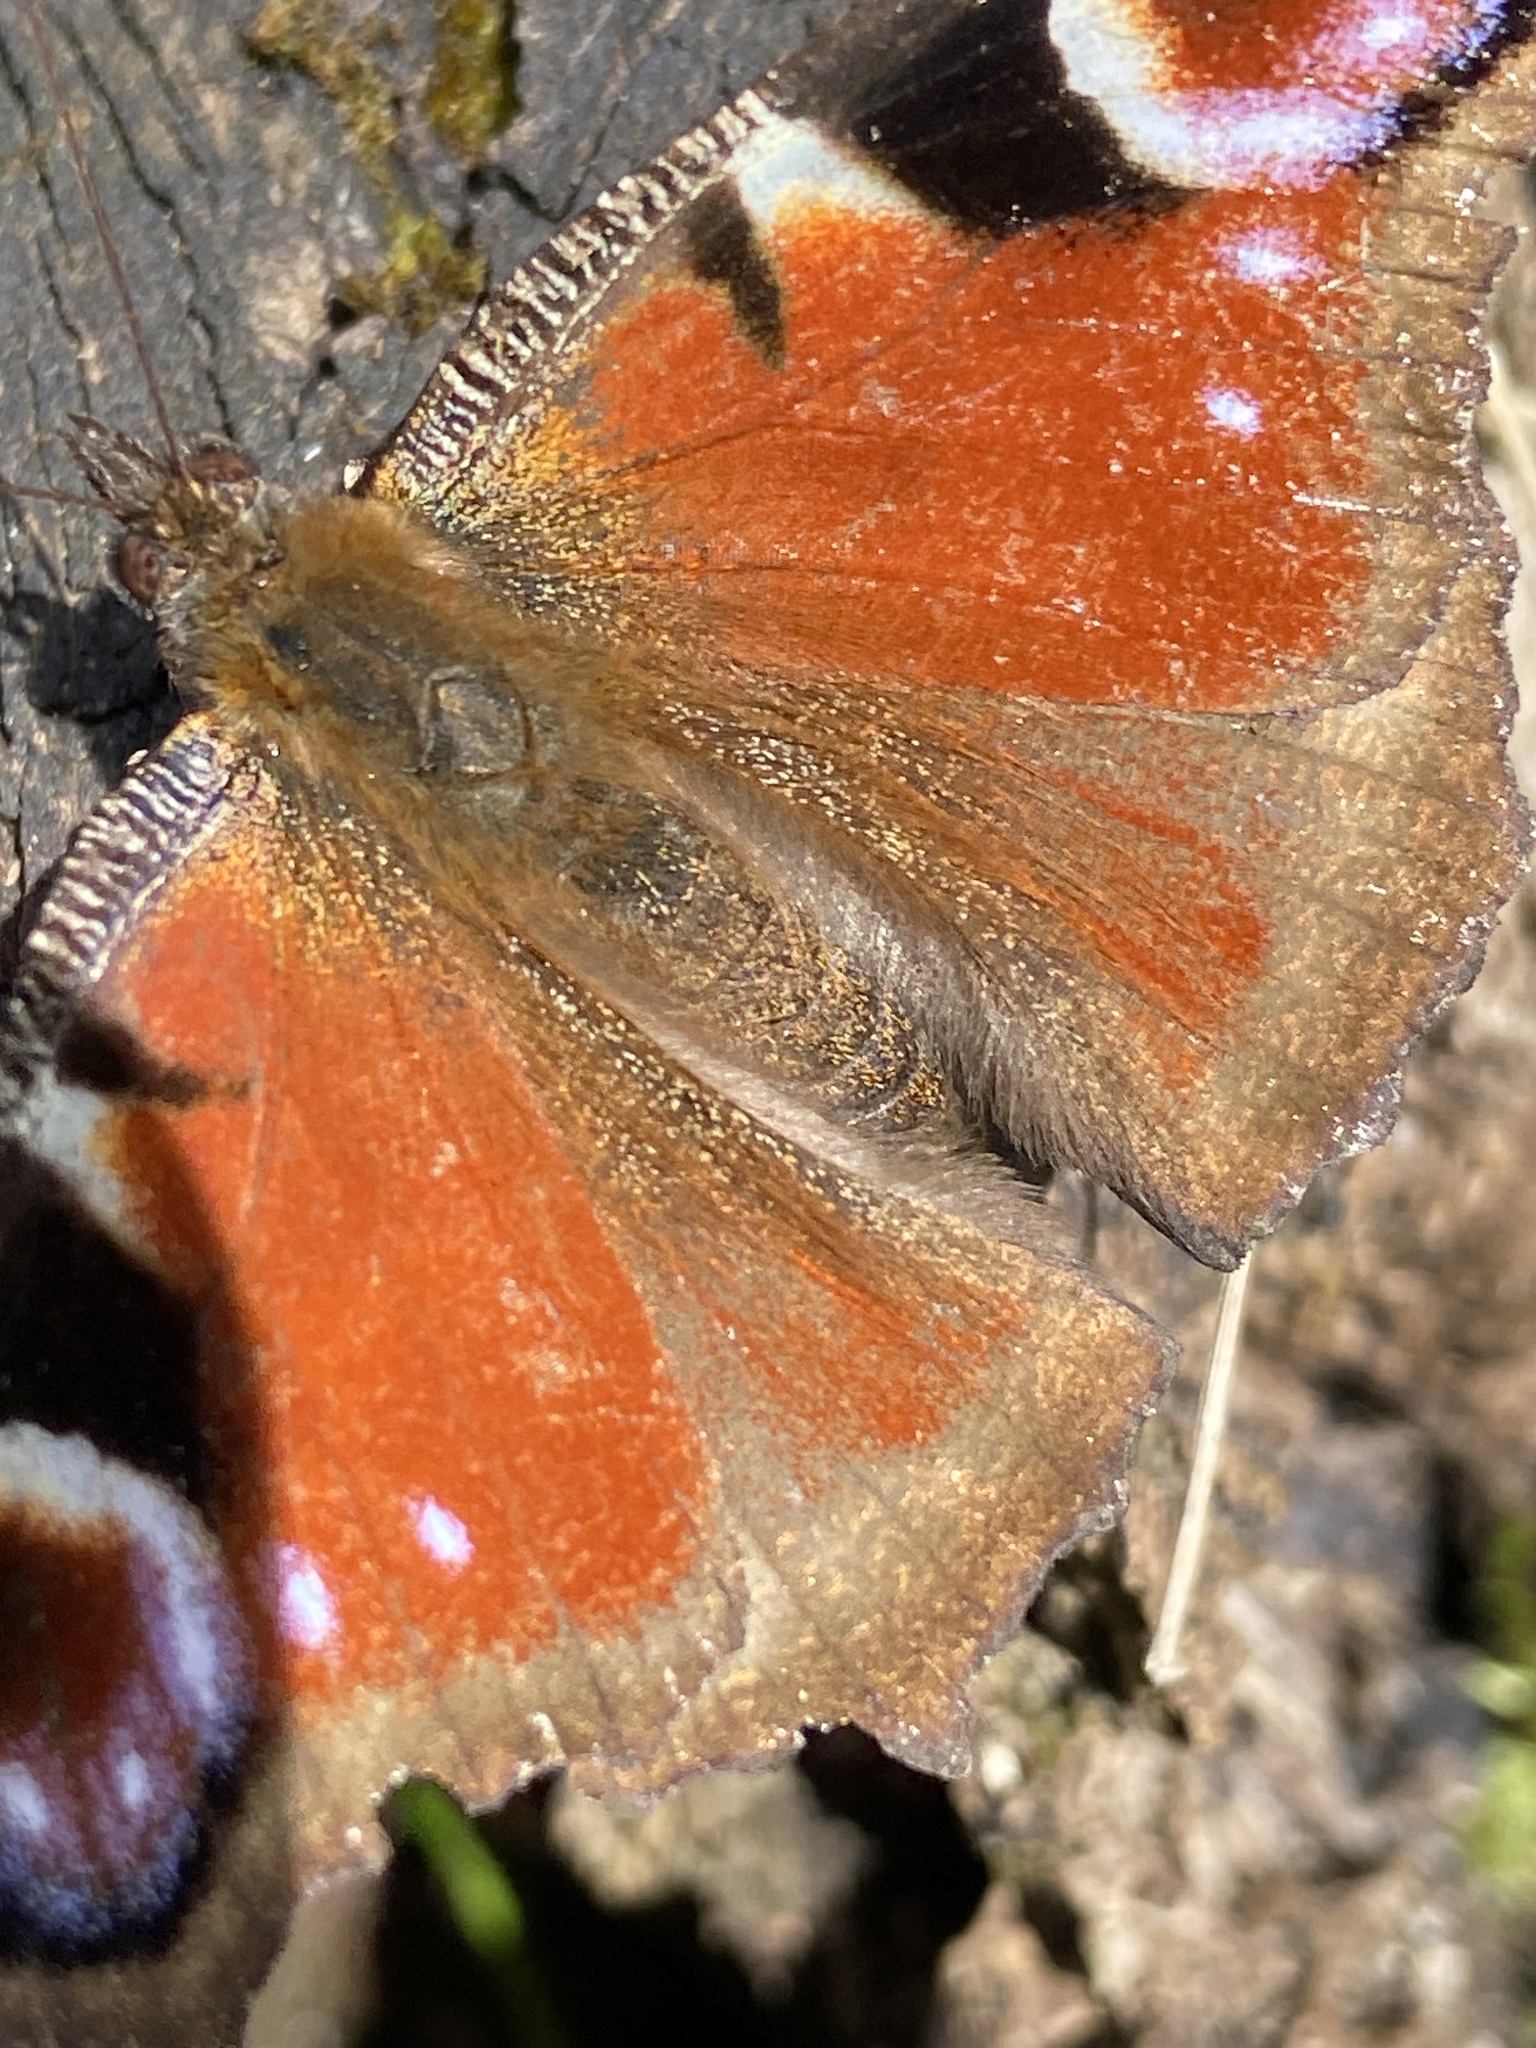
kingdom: Animalia
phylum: Arthropoda
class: Insecta
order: Lepidoptera
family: Nymphalidae
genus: Aglais
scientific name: Aglais io
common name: Peacock
